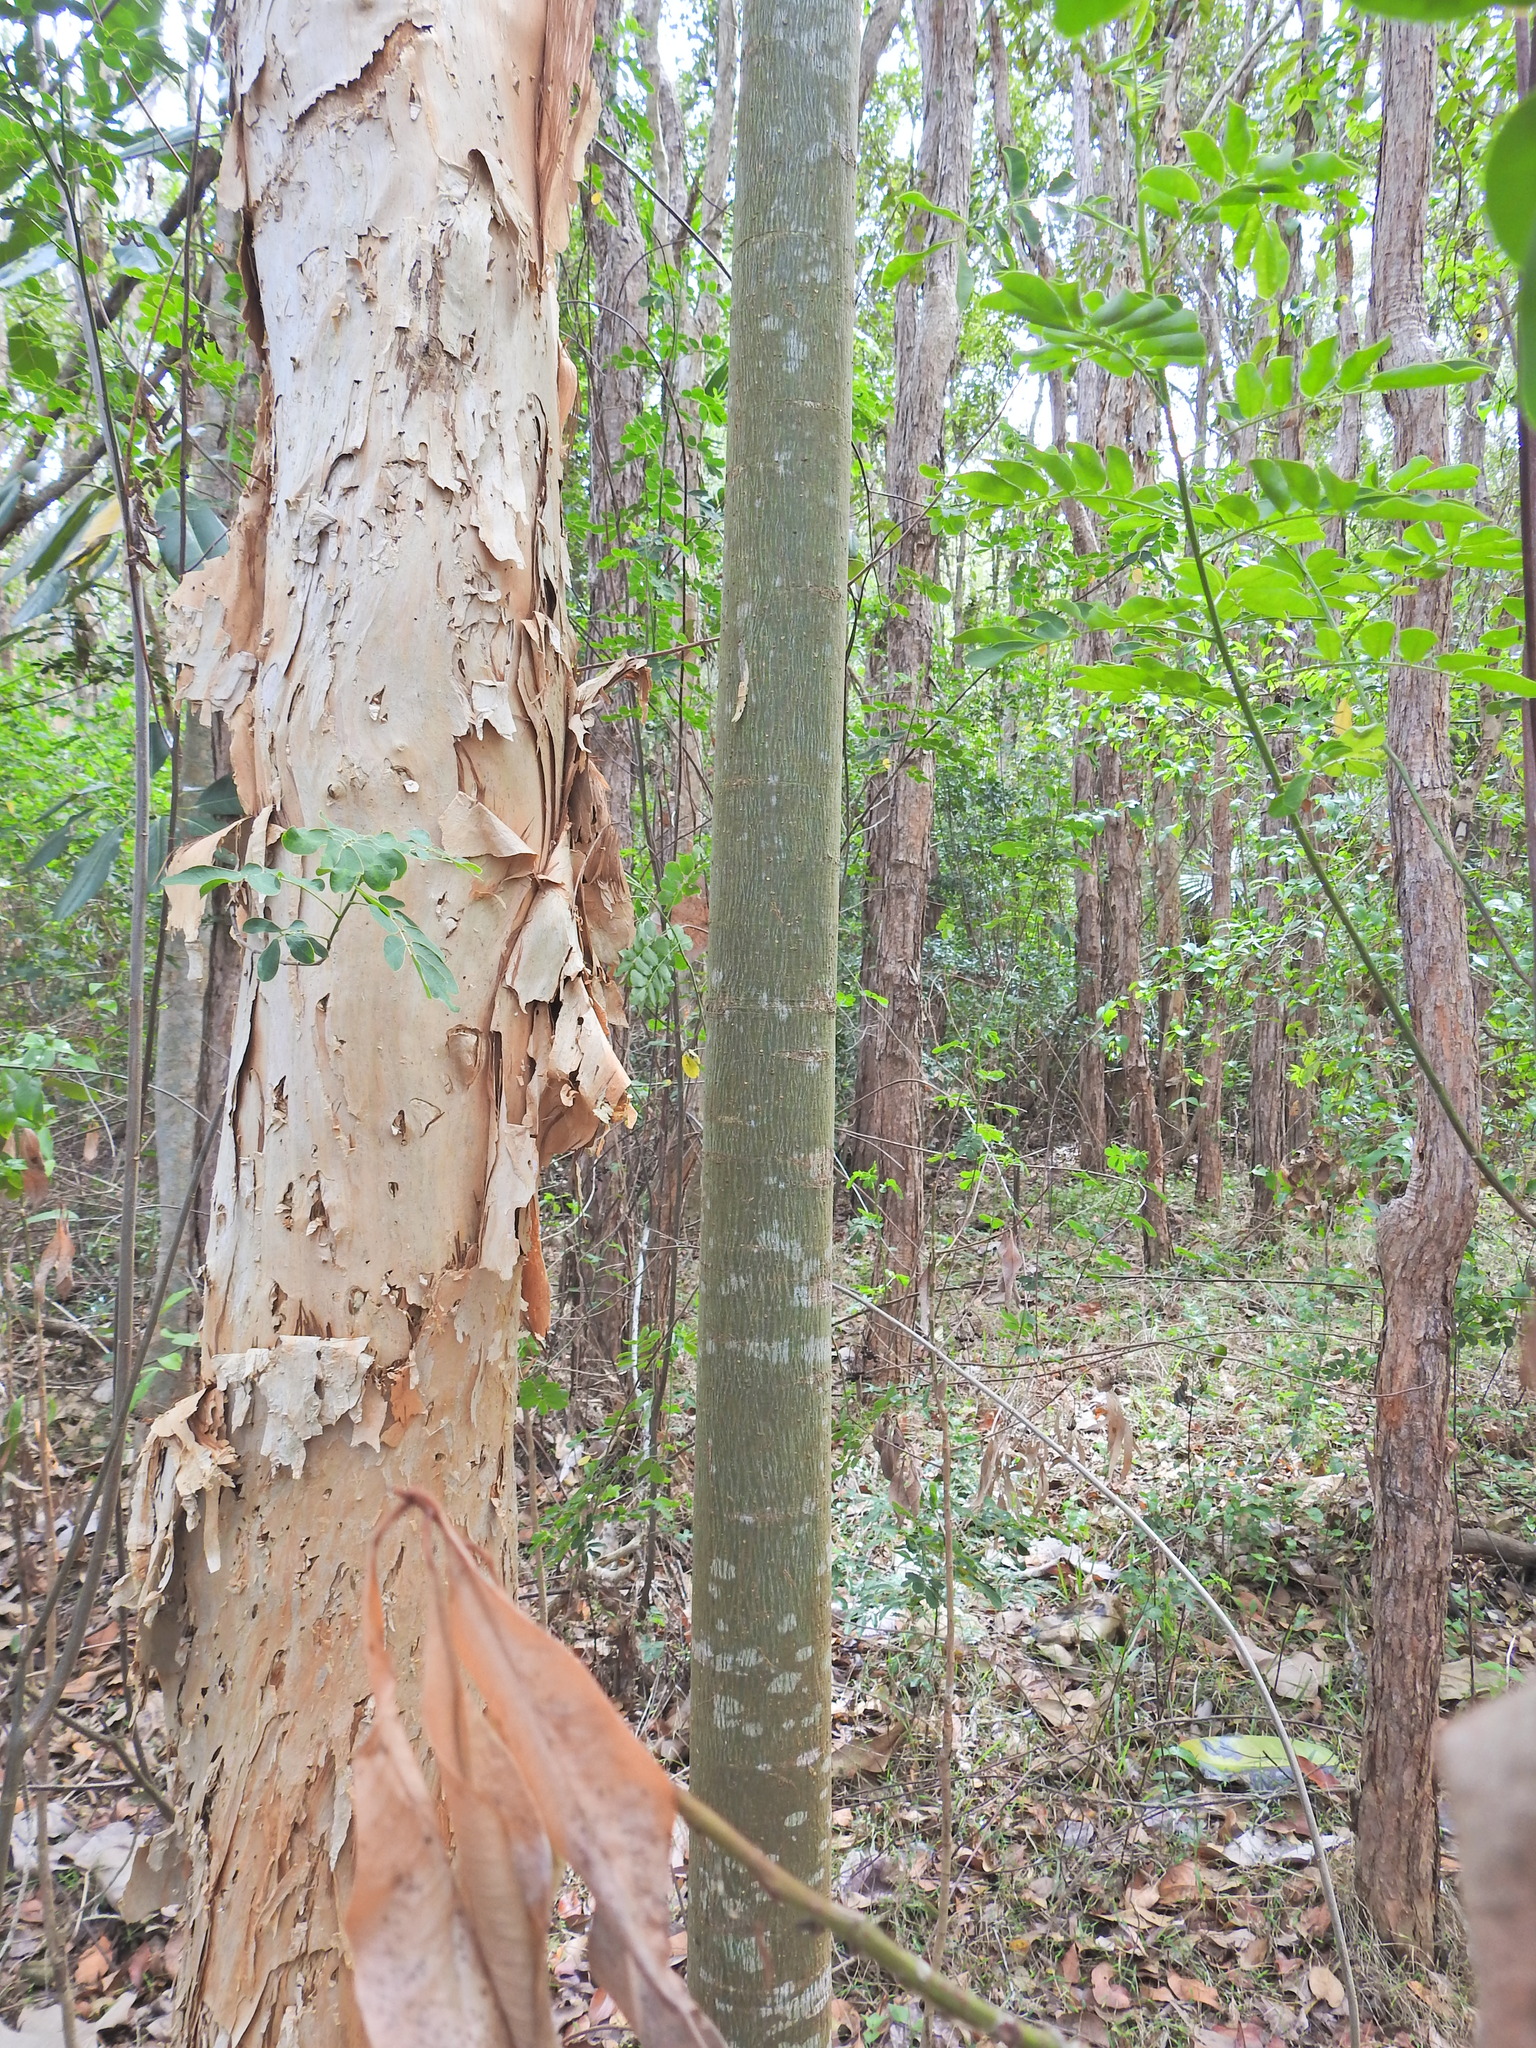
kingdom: Plantae
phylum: Tracheophyta
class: Magnoliopsida
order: Malvales
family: Malvaceae
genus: Brachychiton
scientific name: Brachychiton acerifolius
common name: Illawarra flame tree
